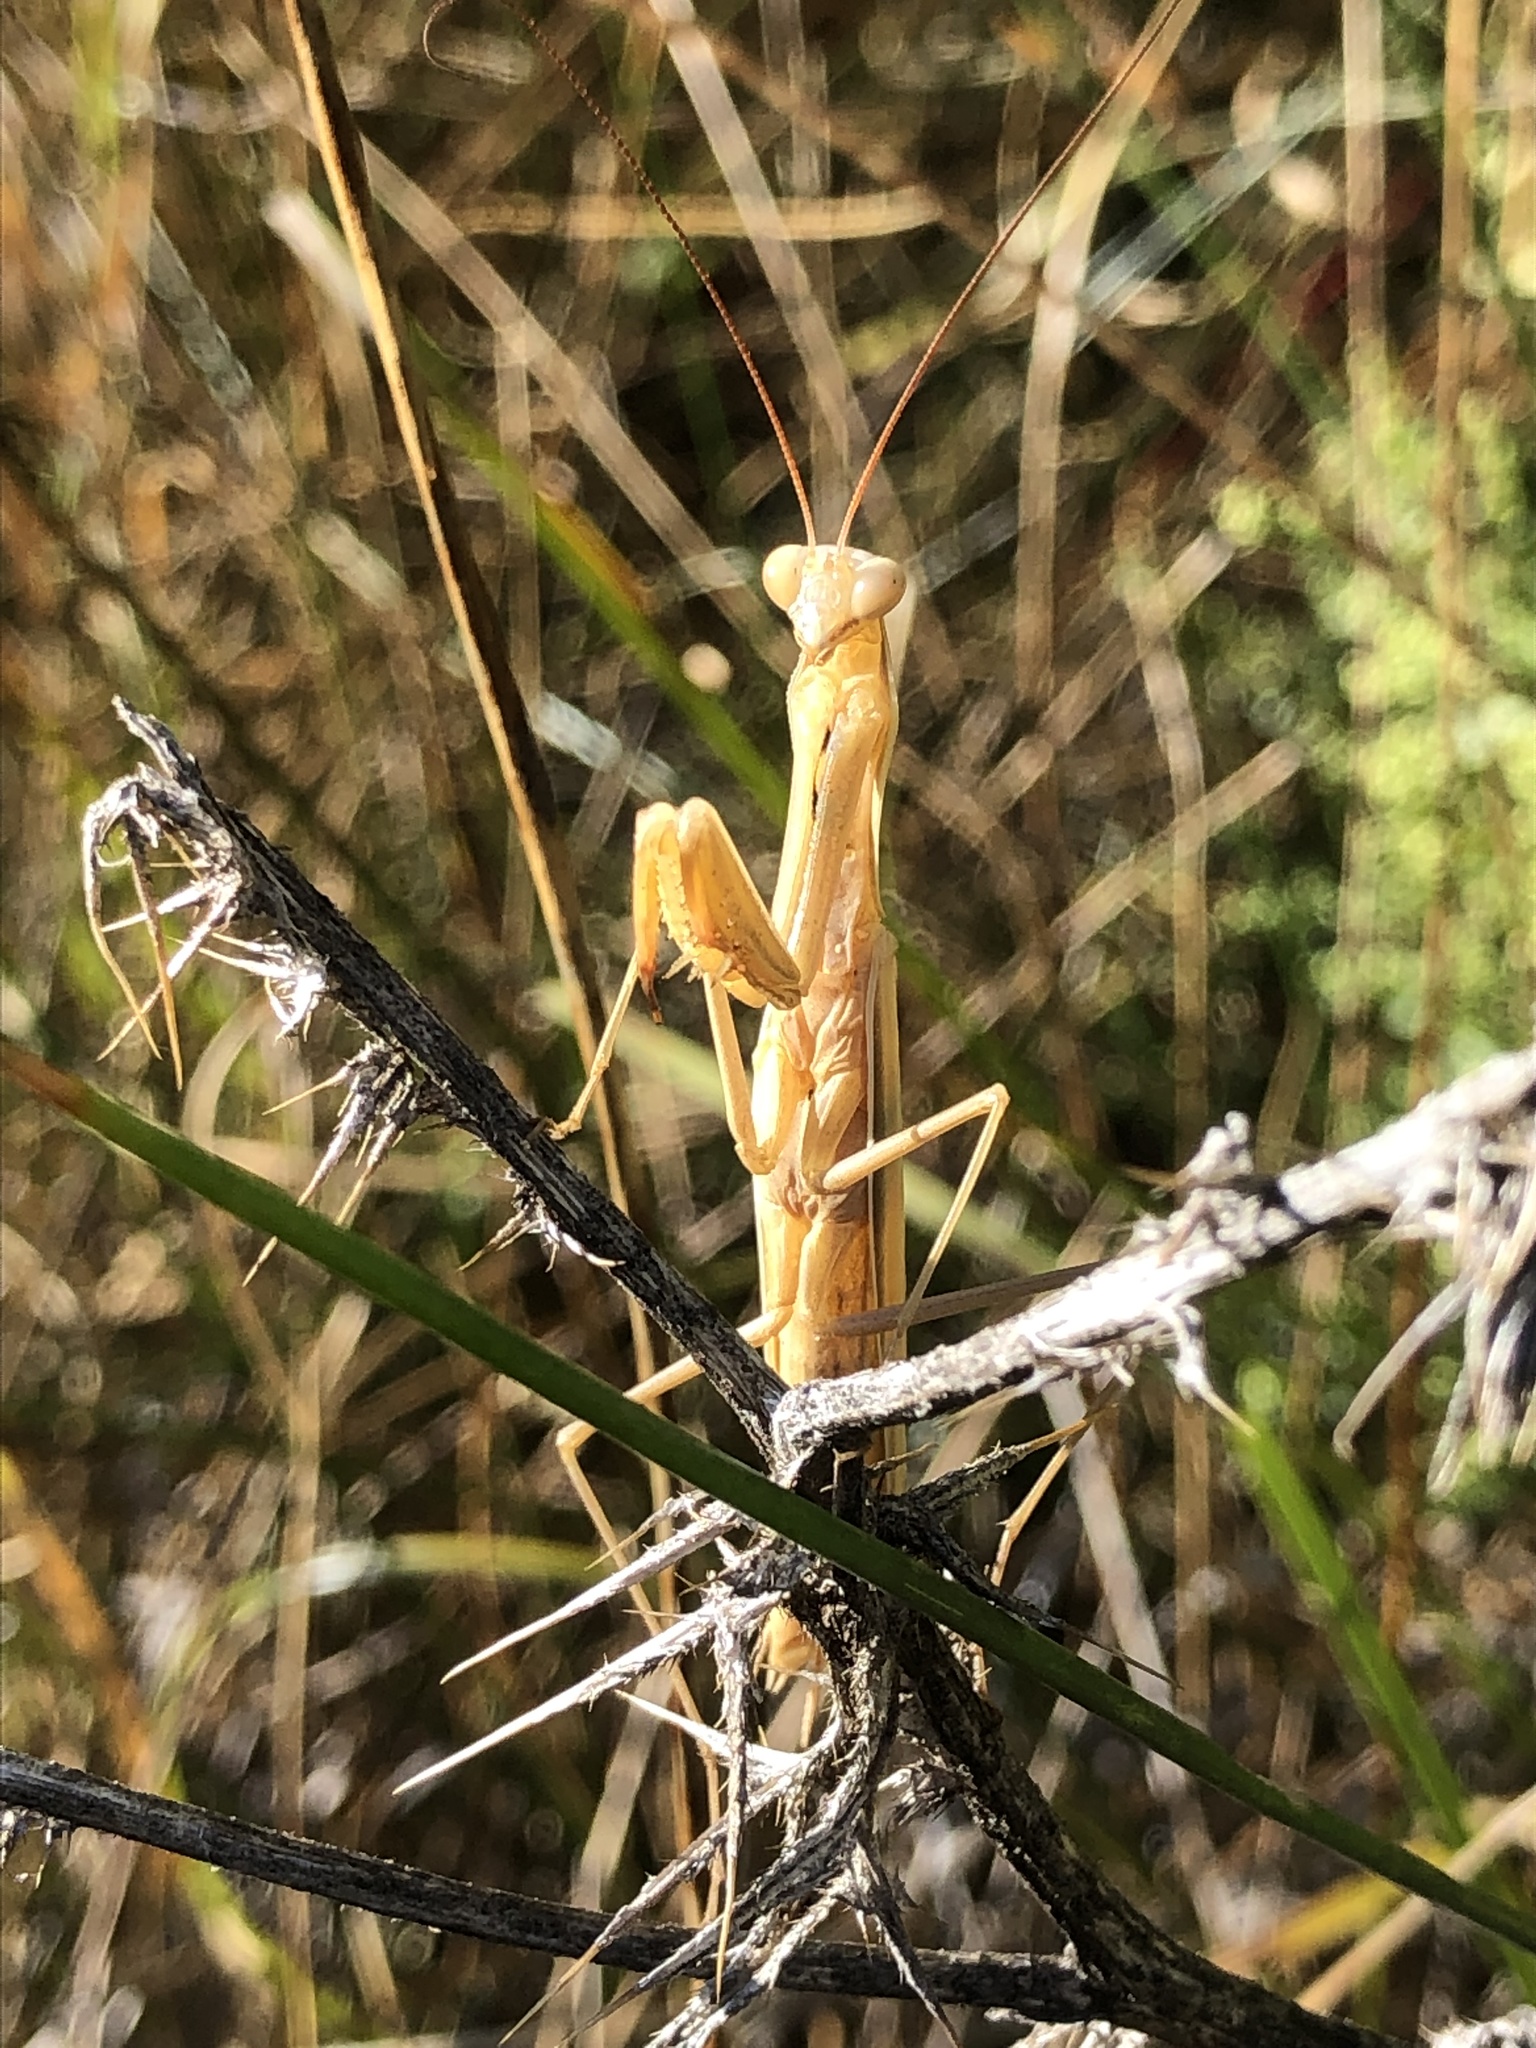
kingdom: Animalia
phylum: Arthropoda
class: Insecta
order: Mantodea
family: Mantidae
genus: Mantis
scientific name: Mantis religiosa
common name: Praying mantis
